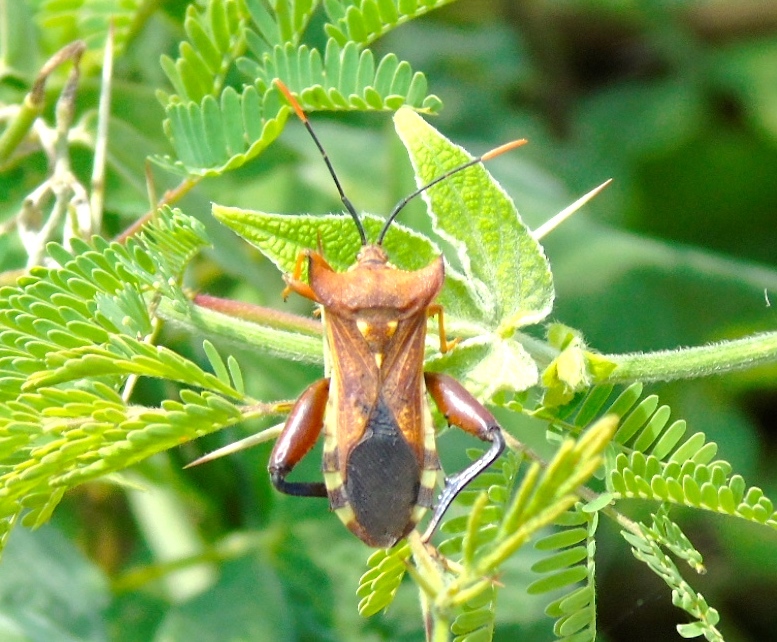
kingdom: Animalia
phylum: Arthropoda
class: Insecta
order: Hemiptera
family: Coreidae
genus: Mozena
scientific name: Mozena lunata
